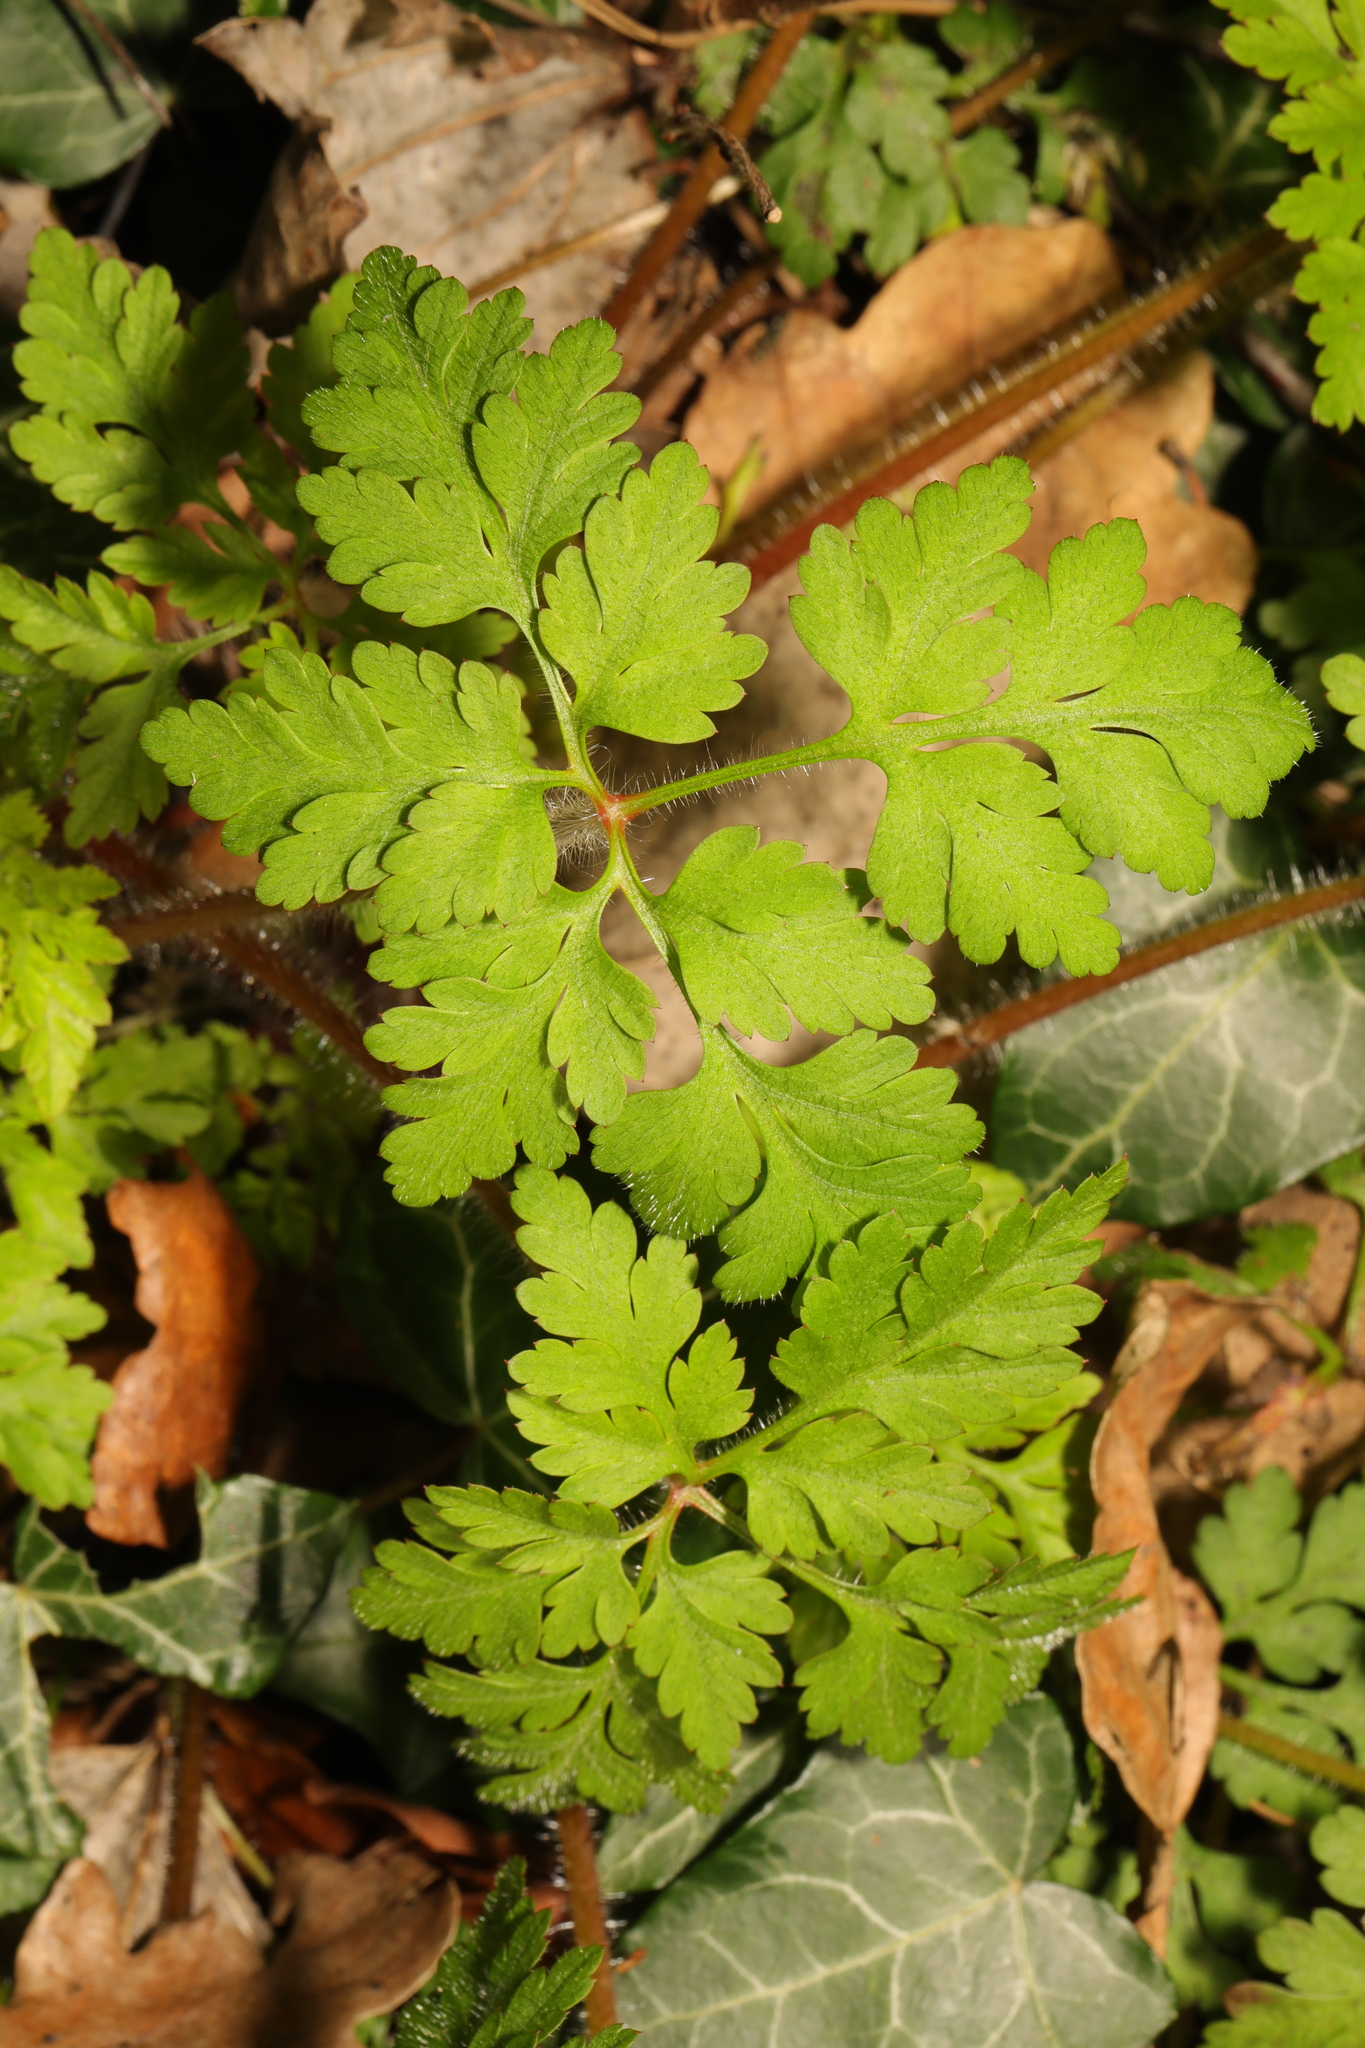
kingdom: Plantae
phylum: Tracheophyta
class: Magnoliopsida
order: Geraniales
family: Geraniaceae
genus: Geranium
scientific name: Geranium robertianum
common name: Herb-robert
